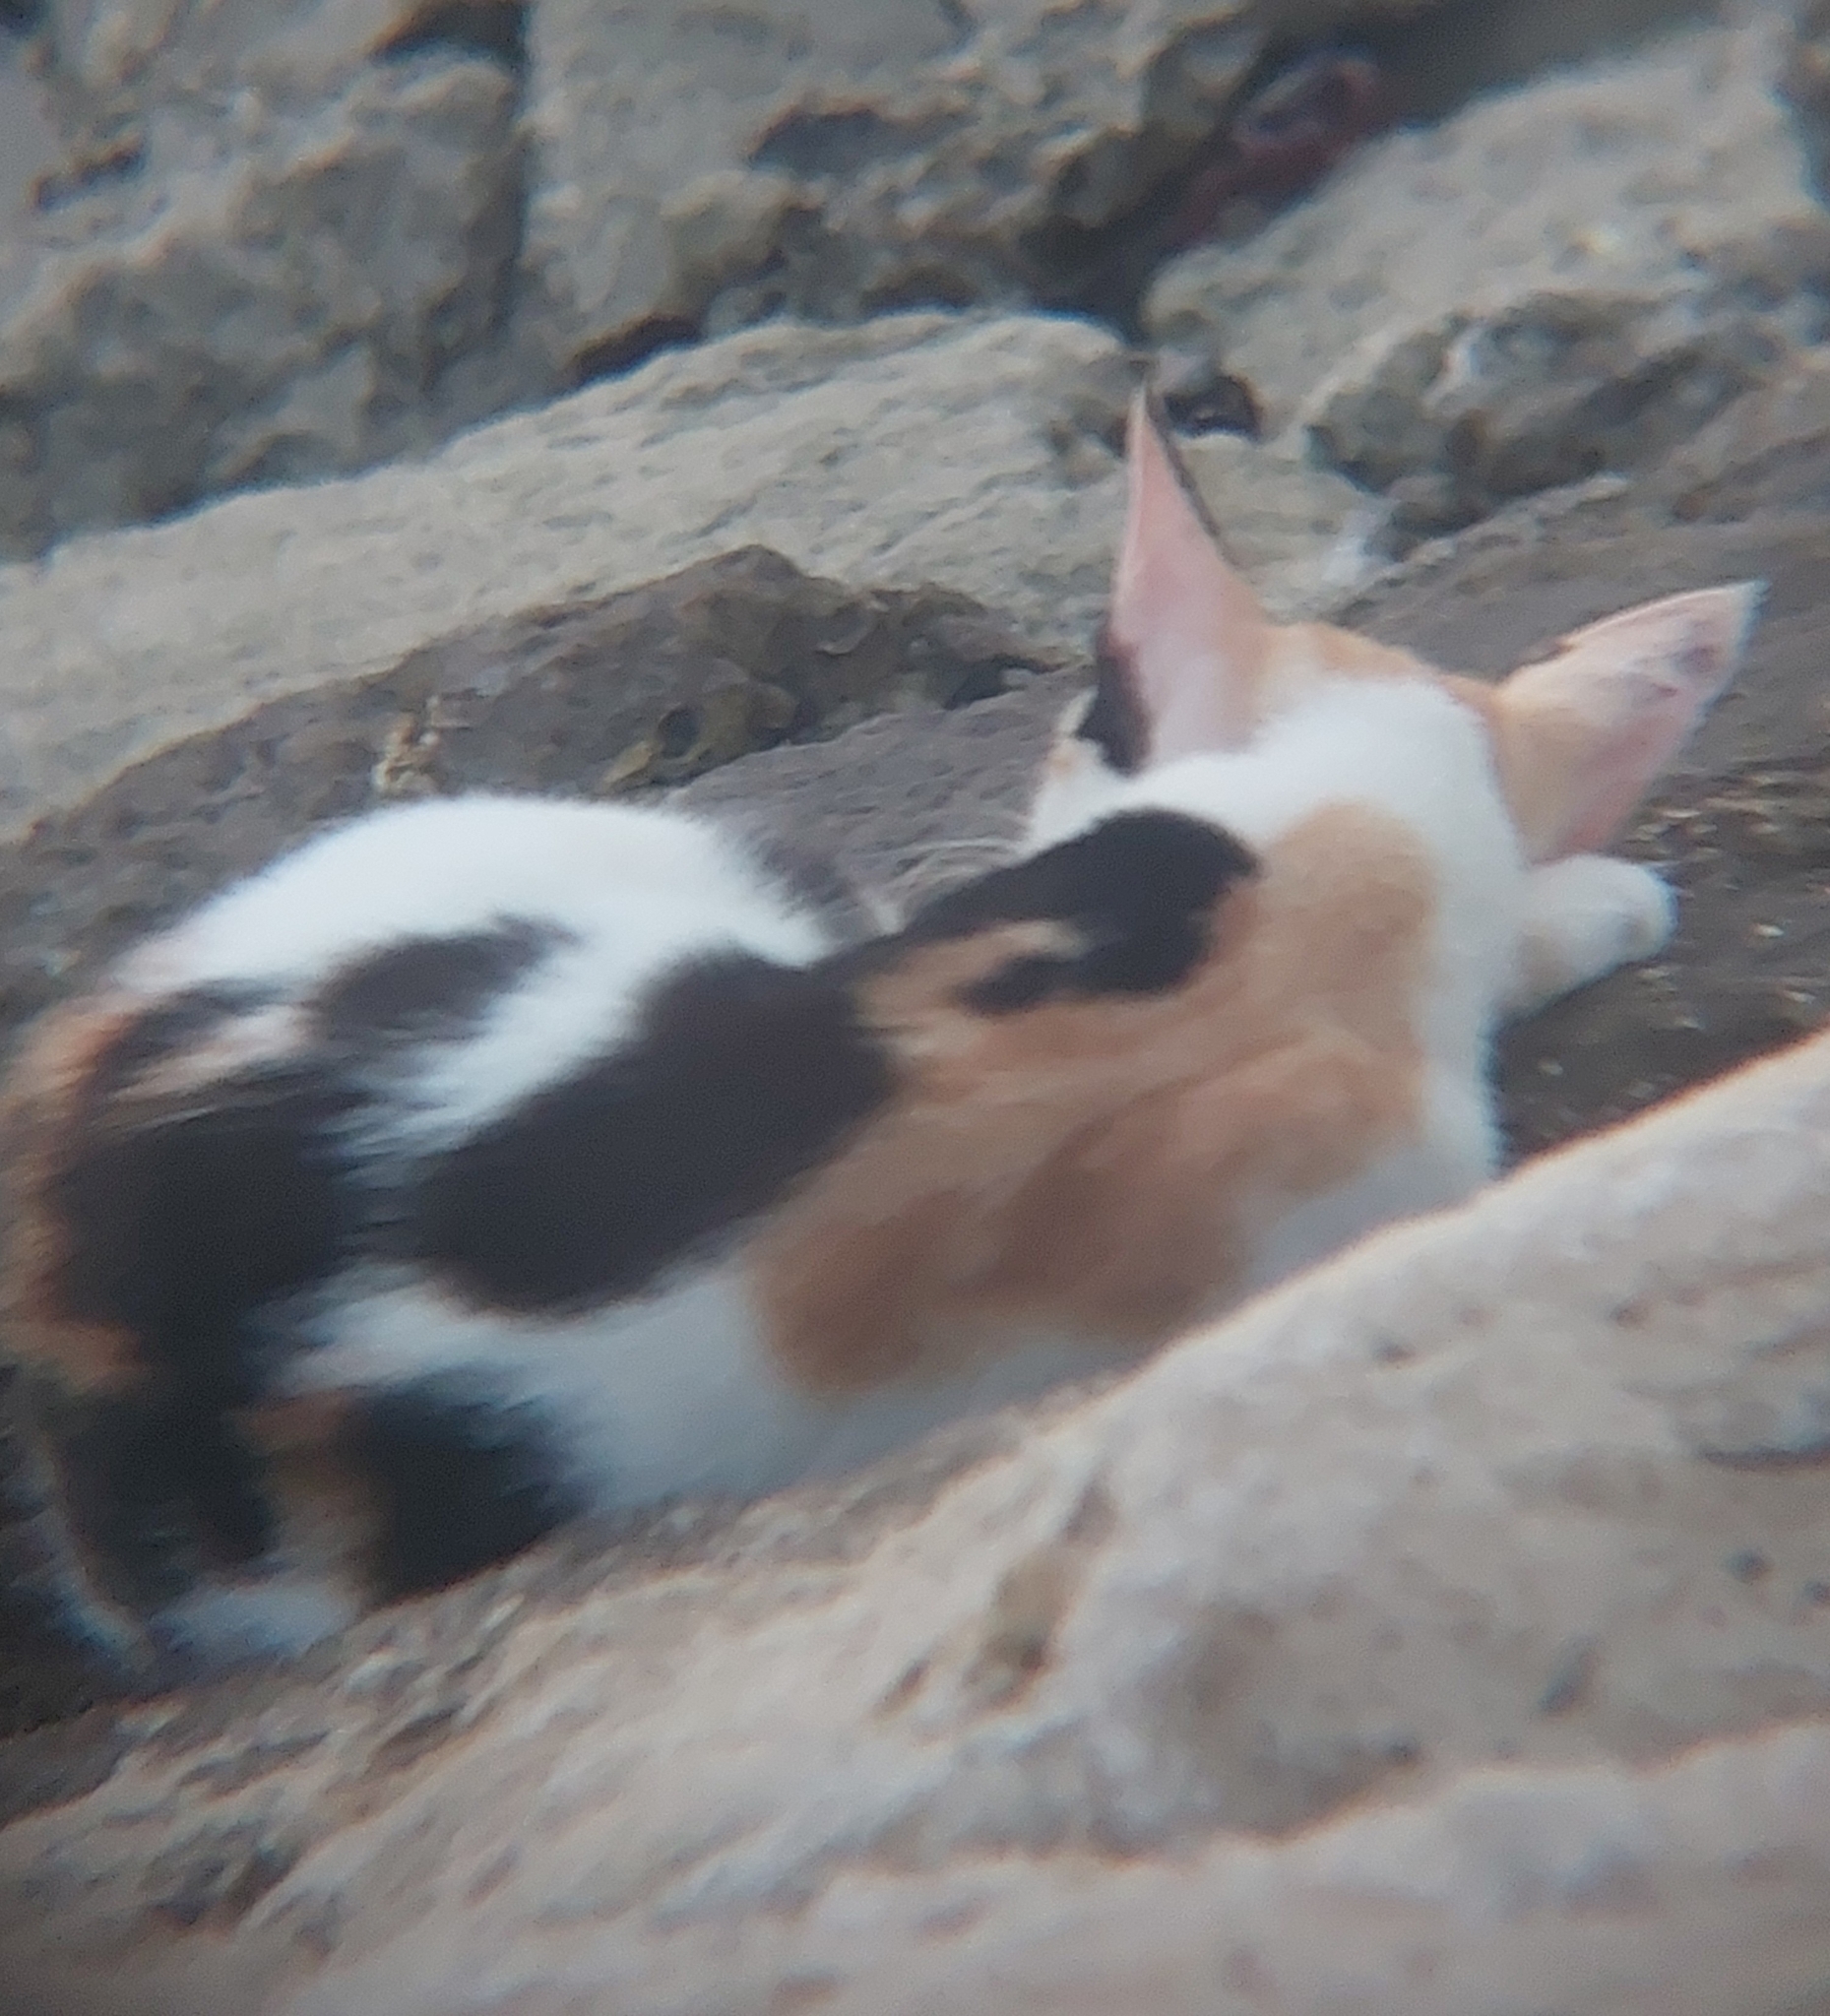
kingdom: Animalia
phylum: Chordata
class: Mammalia
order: Carnivora
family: Felidae
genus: Felis
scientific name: Felis catus
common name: Domestic cat
